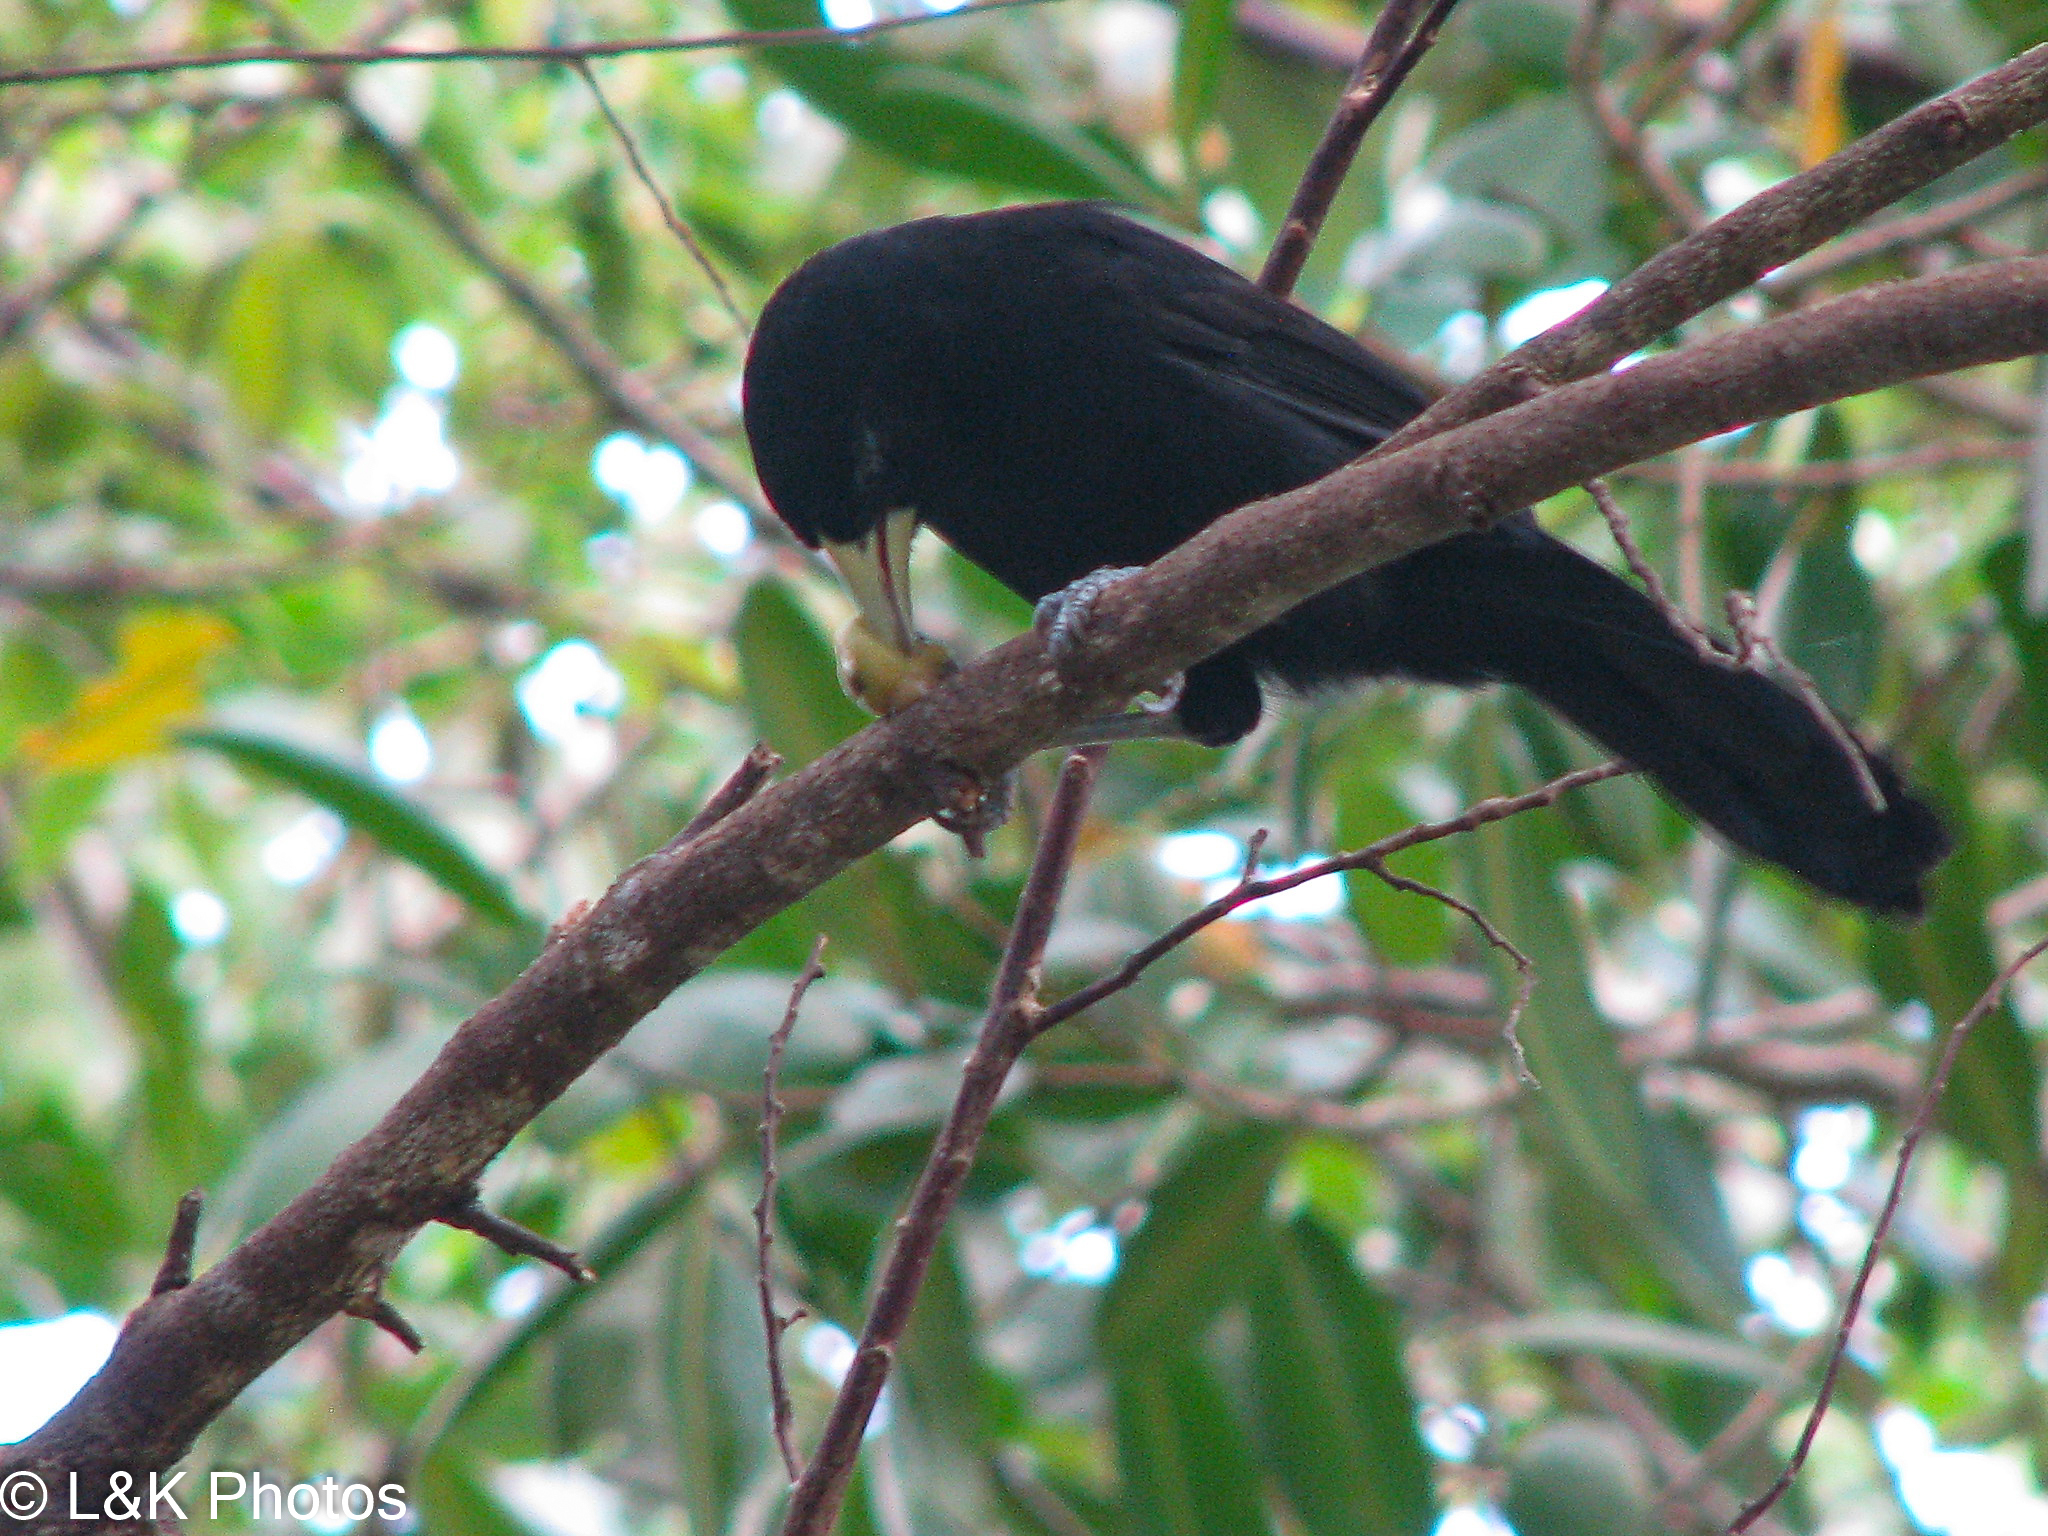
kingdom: Animalia
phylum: Chordata
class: Aves
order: Passeriformes
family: Icteridae
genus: Amblycercus
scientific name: Amblycercus holosericeus
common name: Yellow-billed cacique
